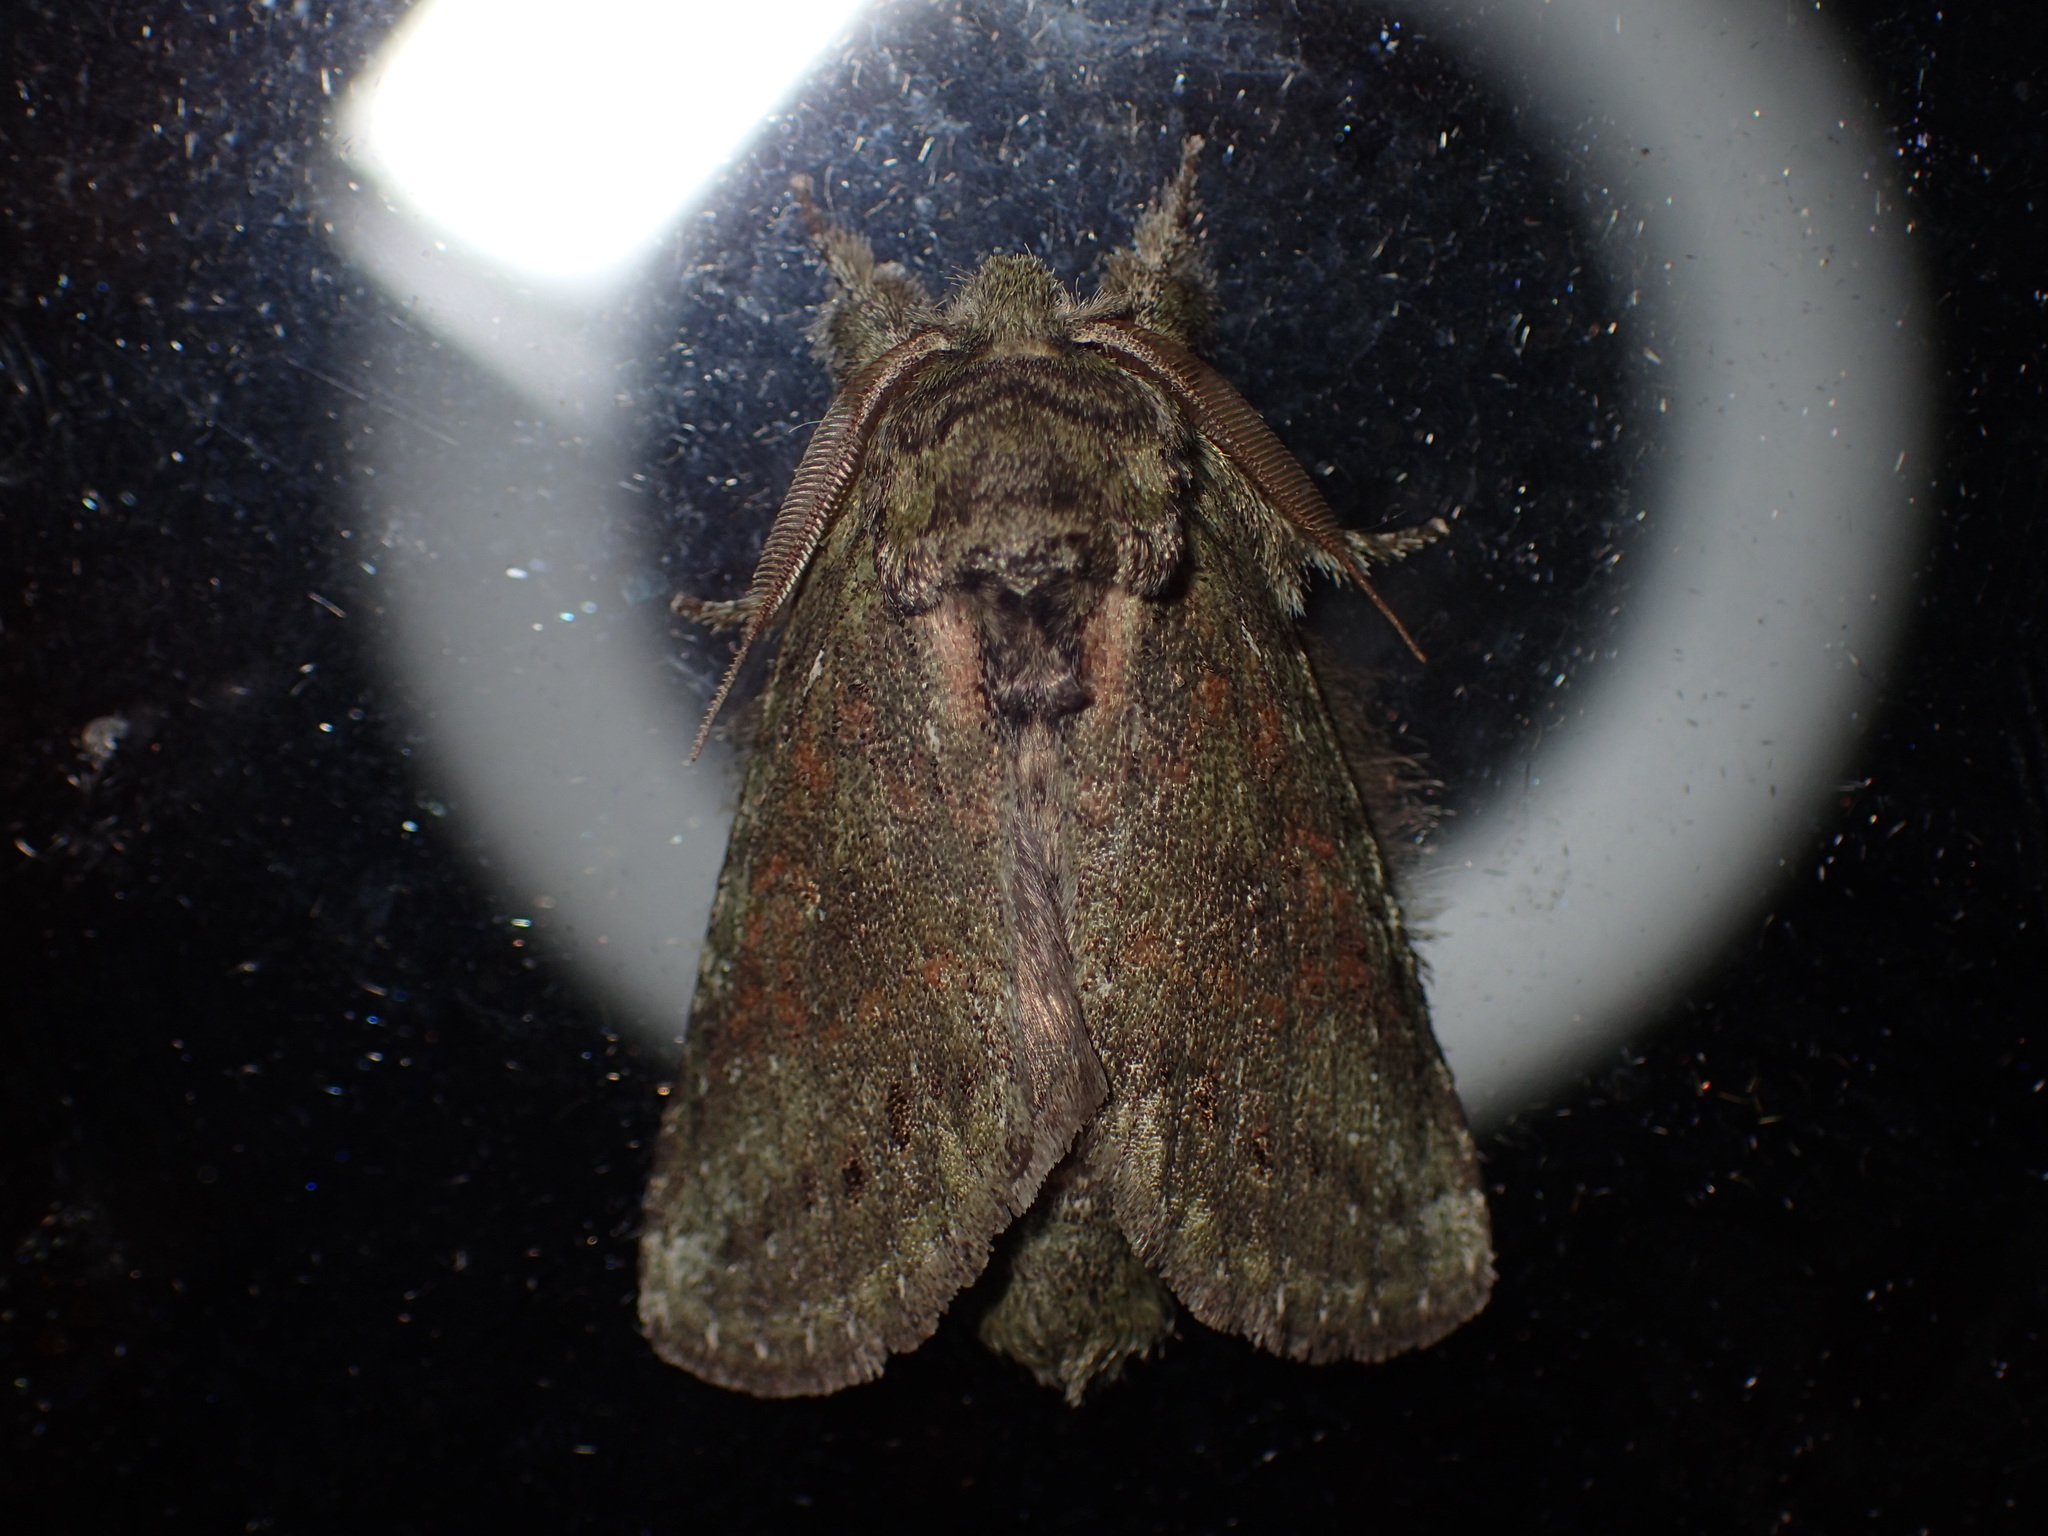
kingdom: Animalia
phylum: Arthropoda
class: Insecta
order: Lepidoptera
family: Notodontidae
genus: Disphragis
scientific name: Disphragis Cecrita guttivitta
